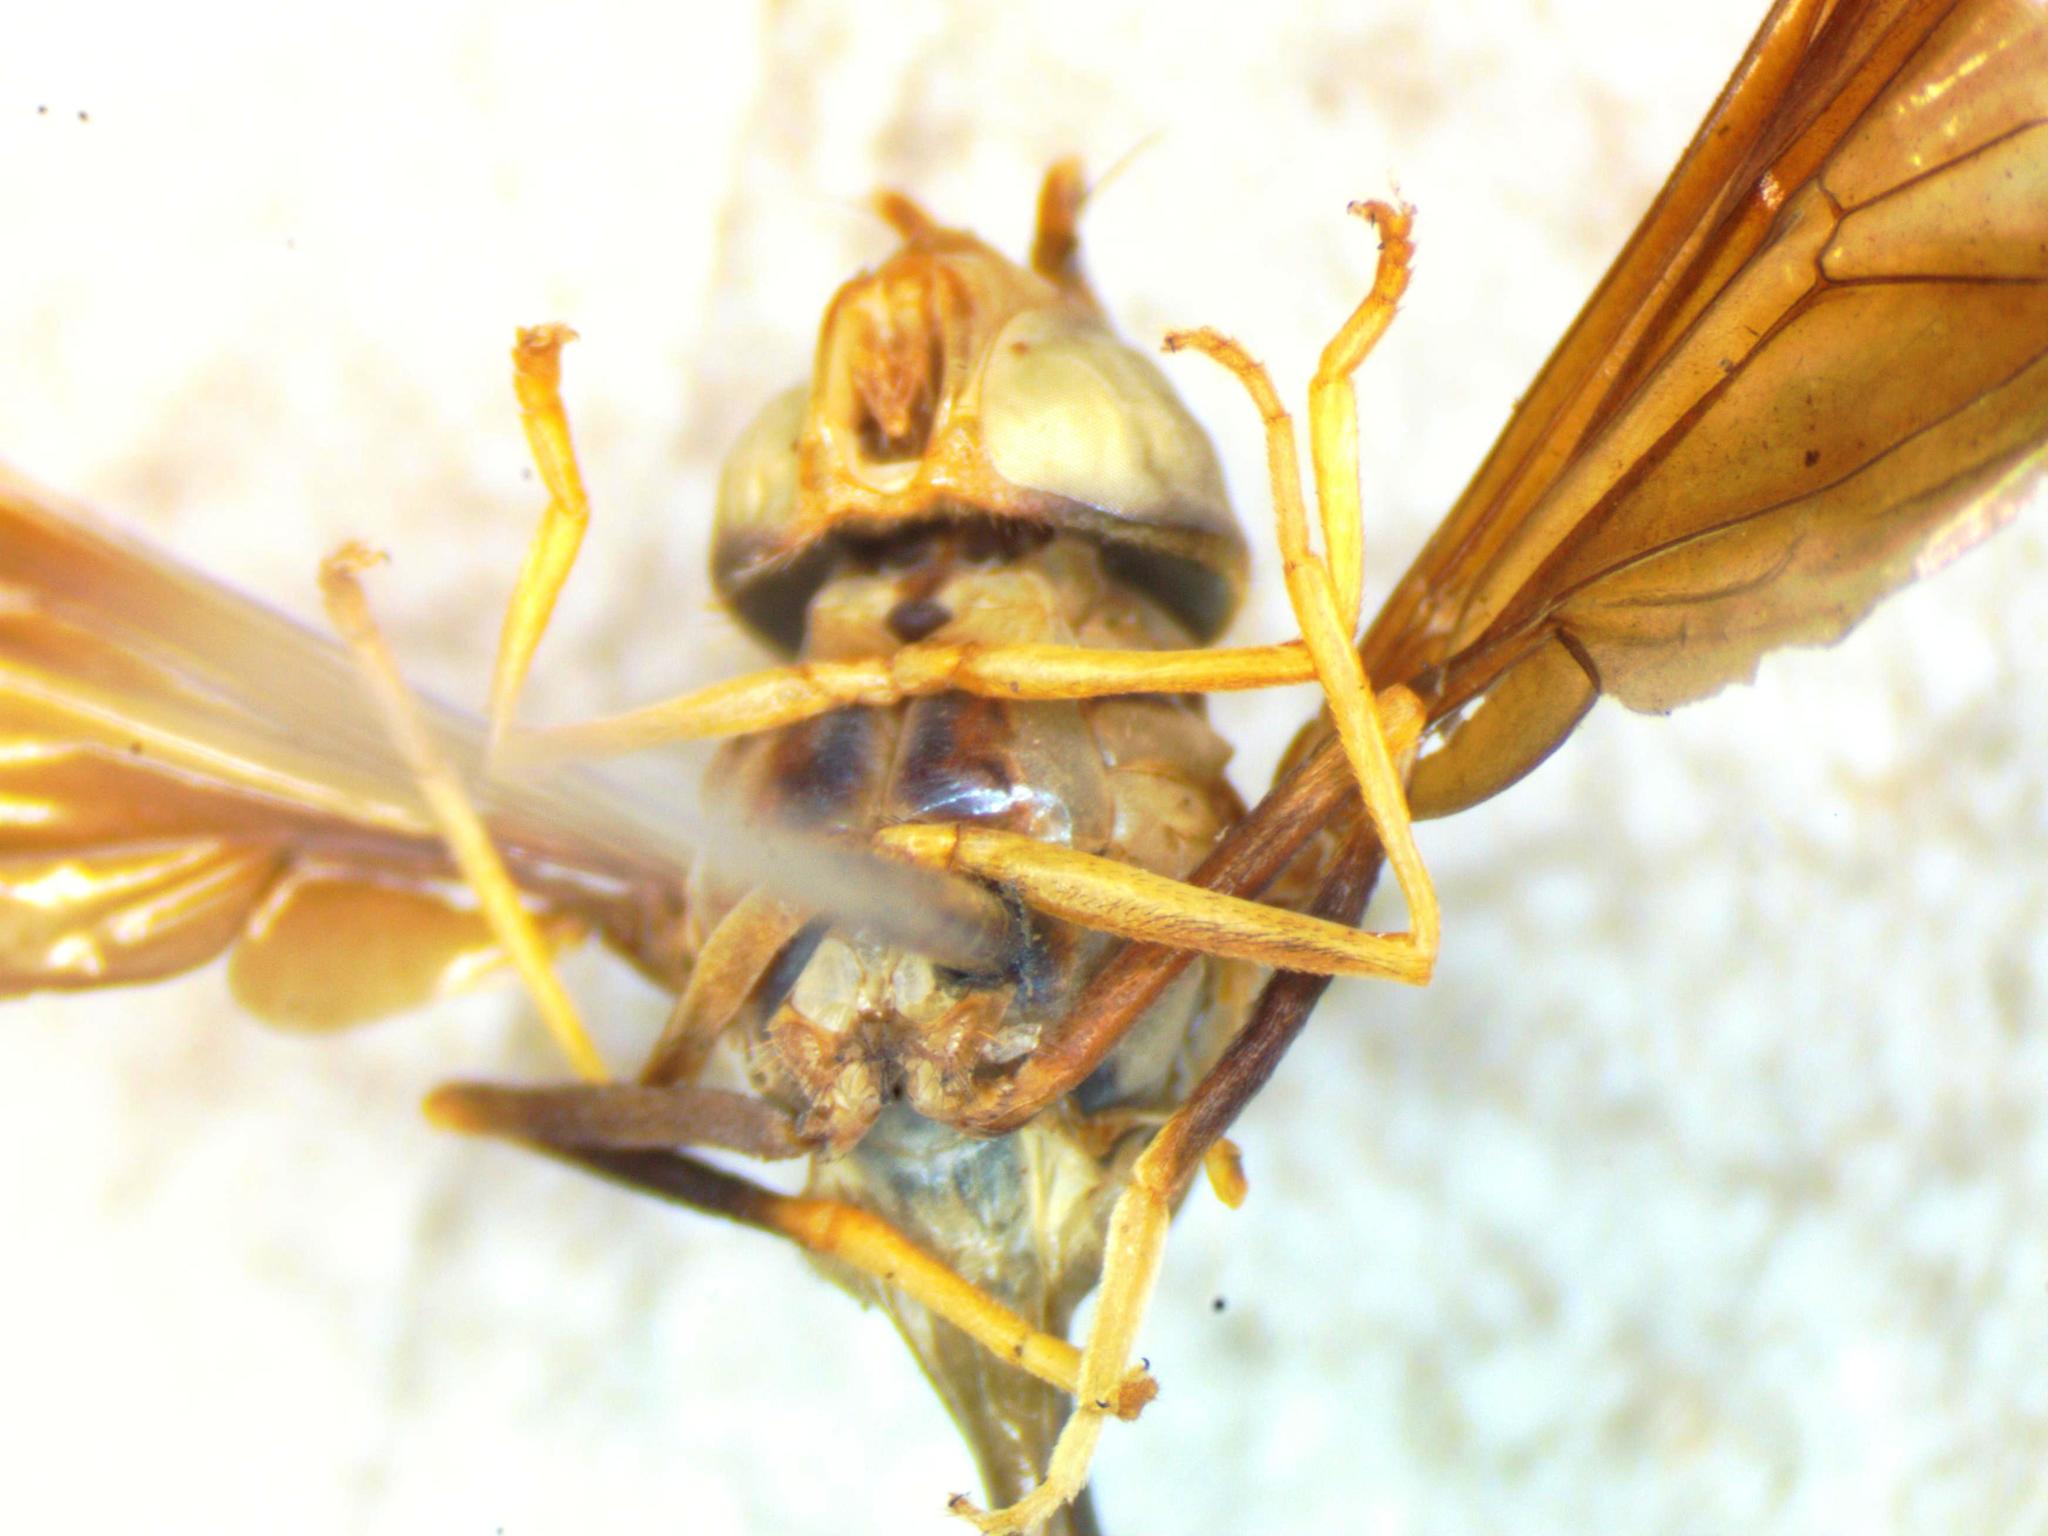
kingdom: Animalia
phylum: Arthropoda
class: Insecta
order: Diptera
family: Syrphidae
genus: Hybobathus
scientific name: Hybobathus phaeopterus
